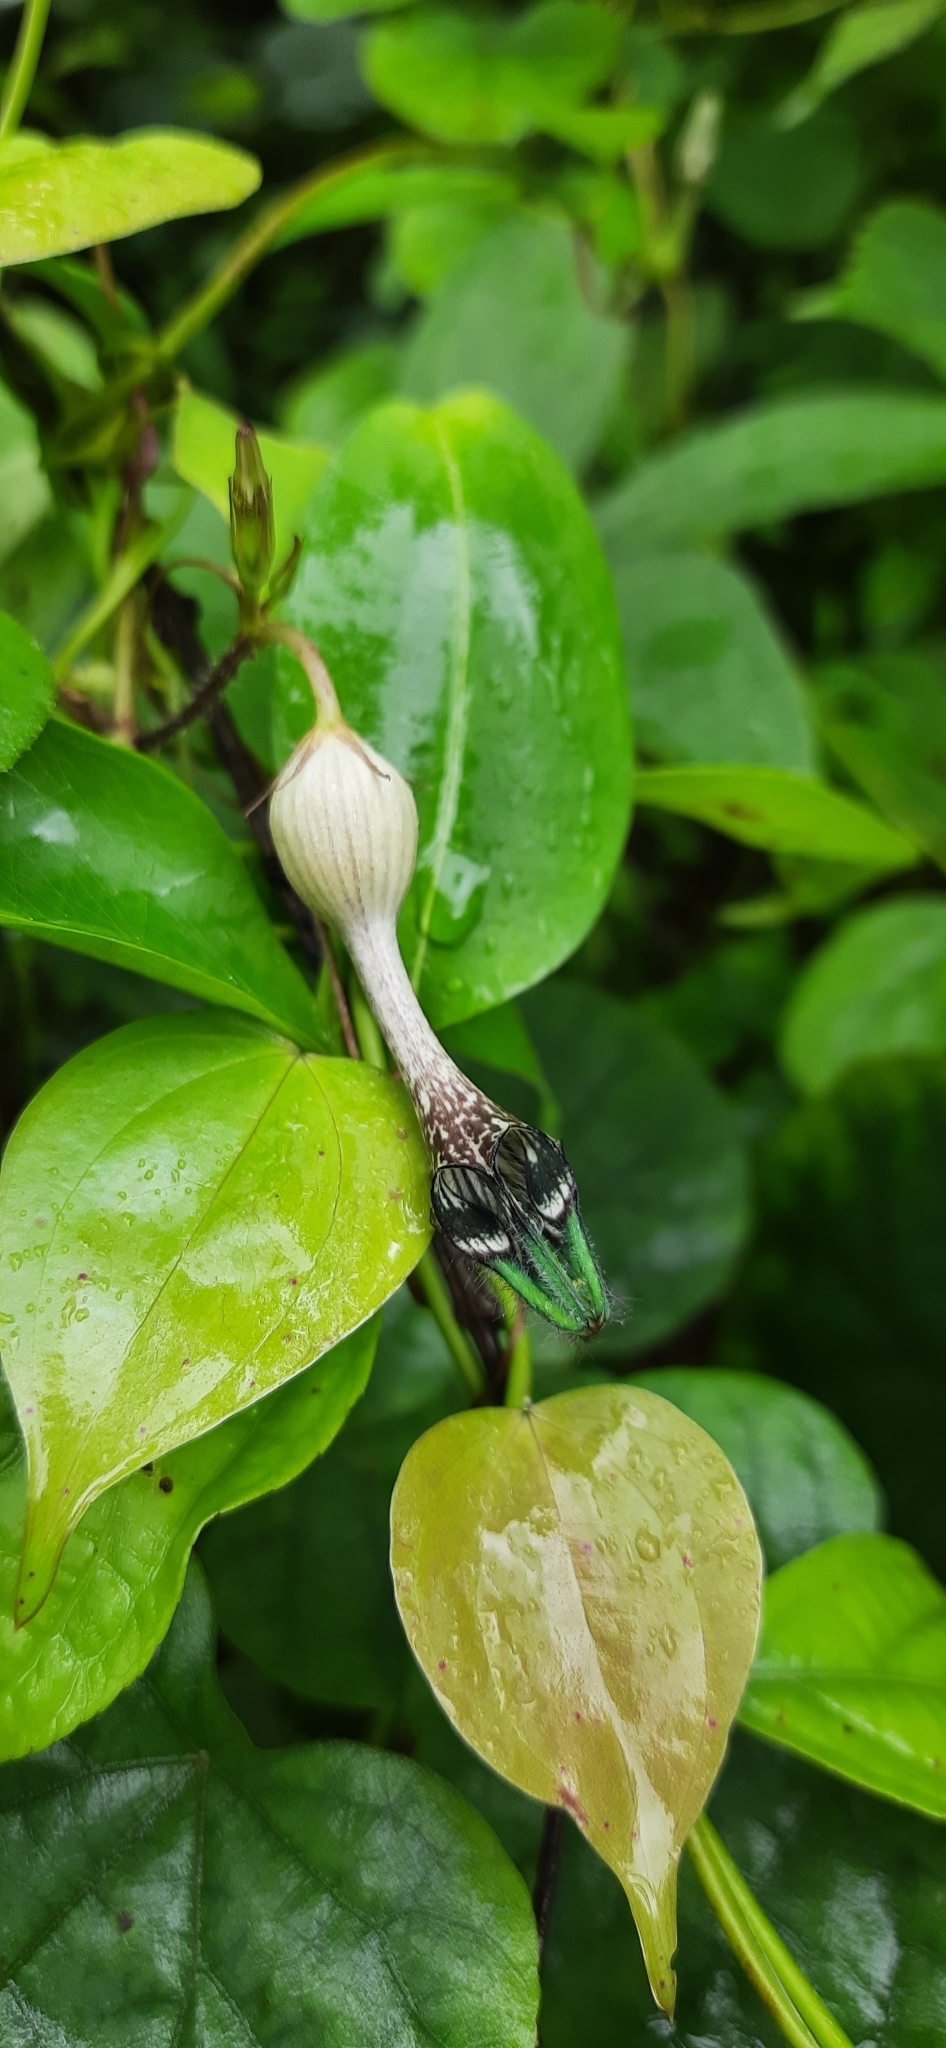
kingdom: Plantae
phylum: Tracheophyta
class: Magnoliopsida
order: Gentianales
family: Apocynaceae
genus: Ceropegia
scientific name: Ceropegia oculata
